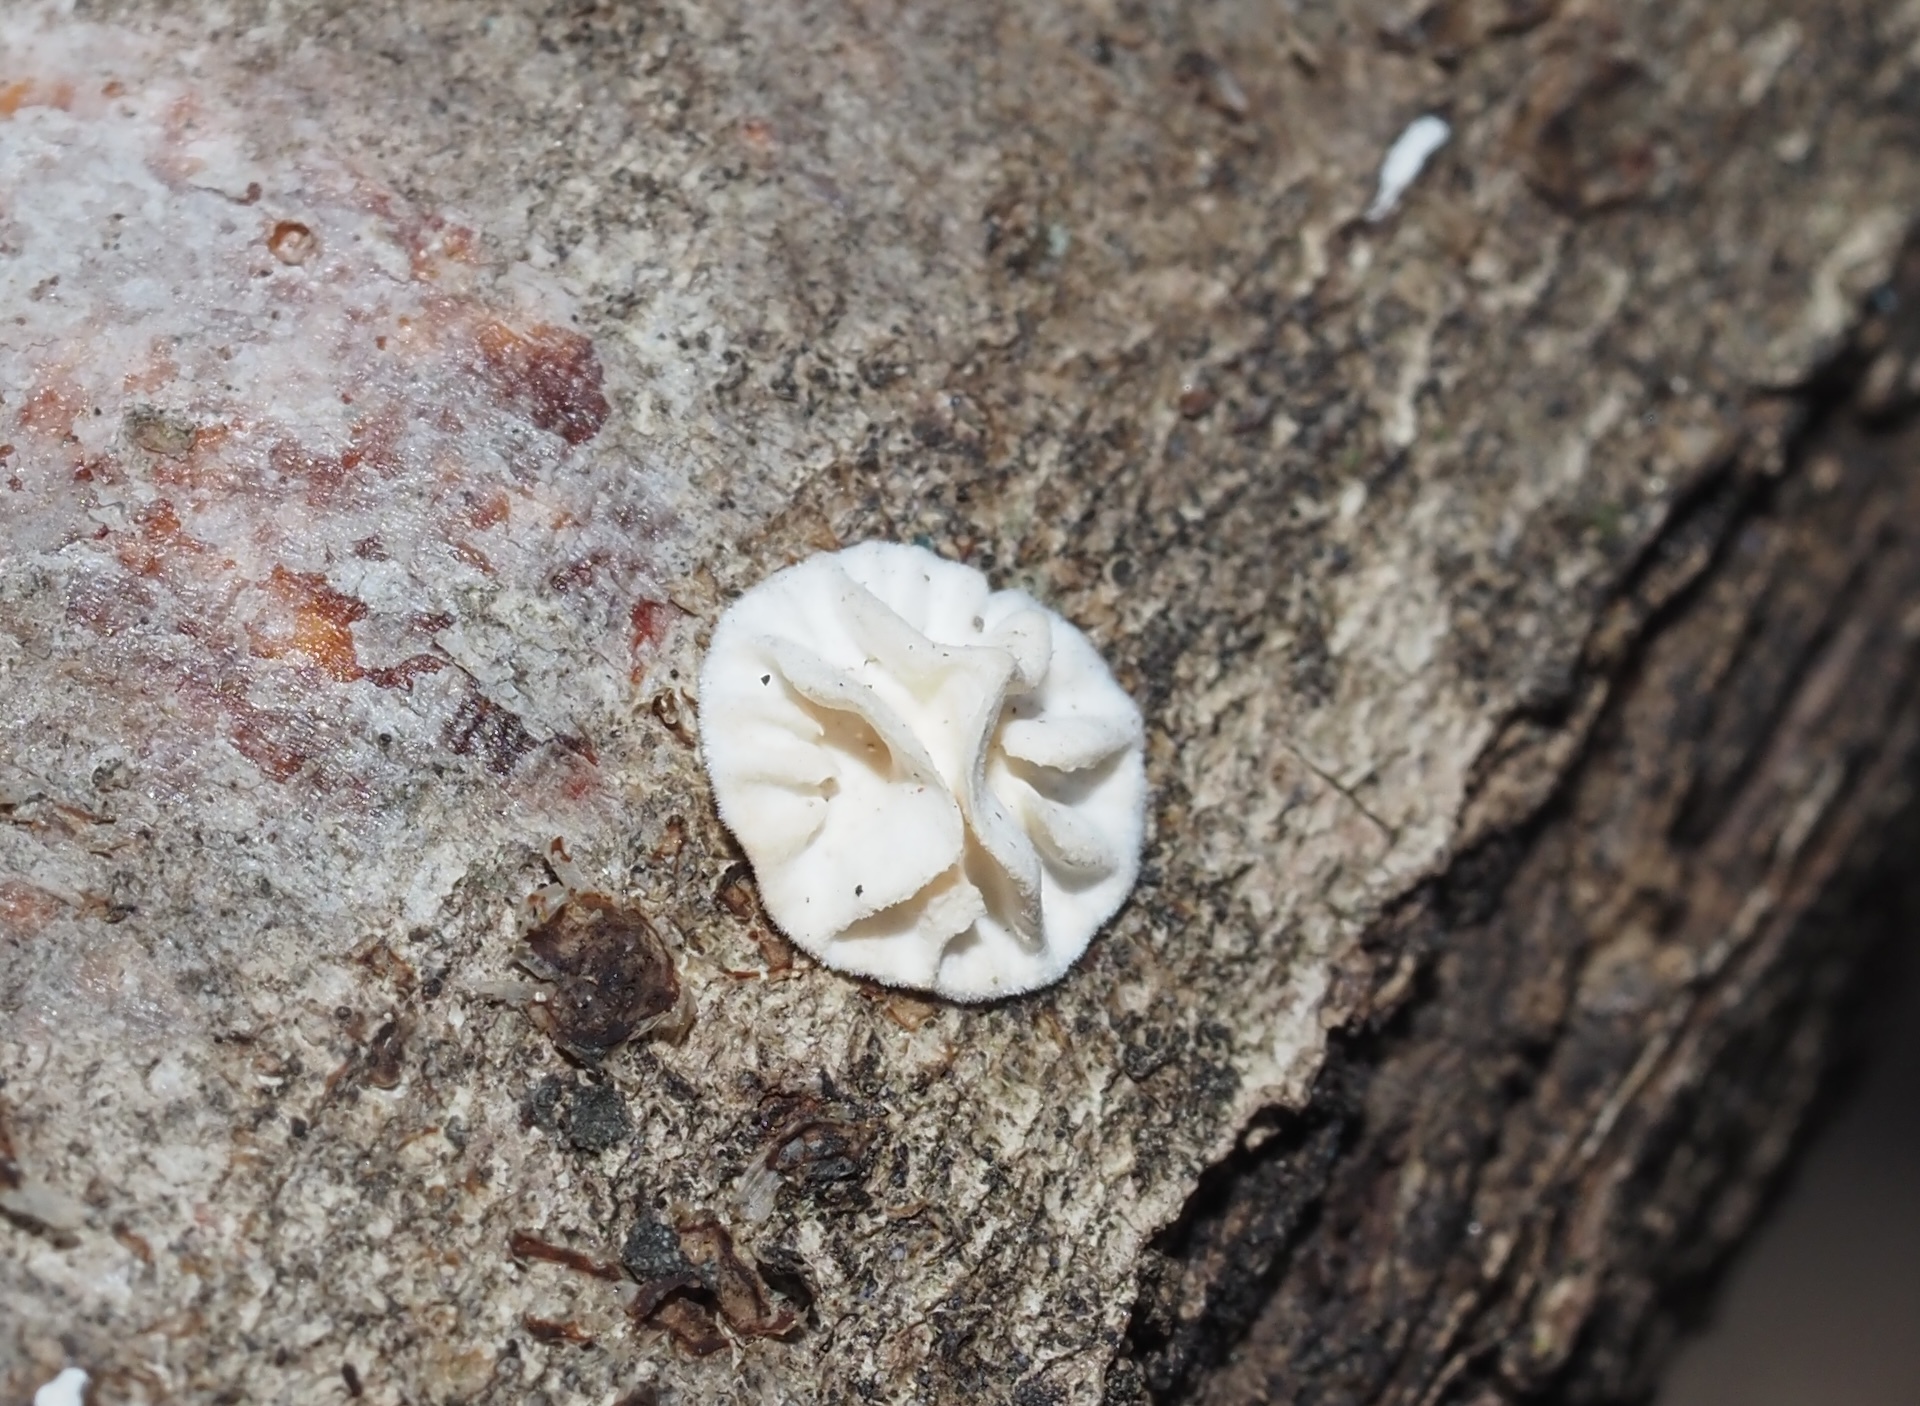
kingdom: Fungi
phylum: Basidiomycota
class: Agaricomycetes
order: Polyporales
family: Polyporaceae
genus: Lenzites
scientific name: Lenzites betulinus
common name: Birch mazegill
